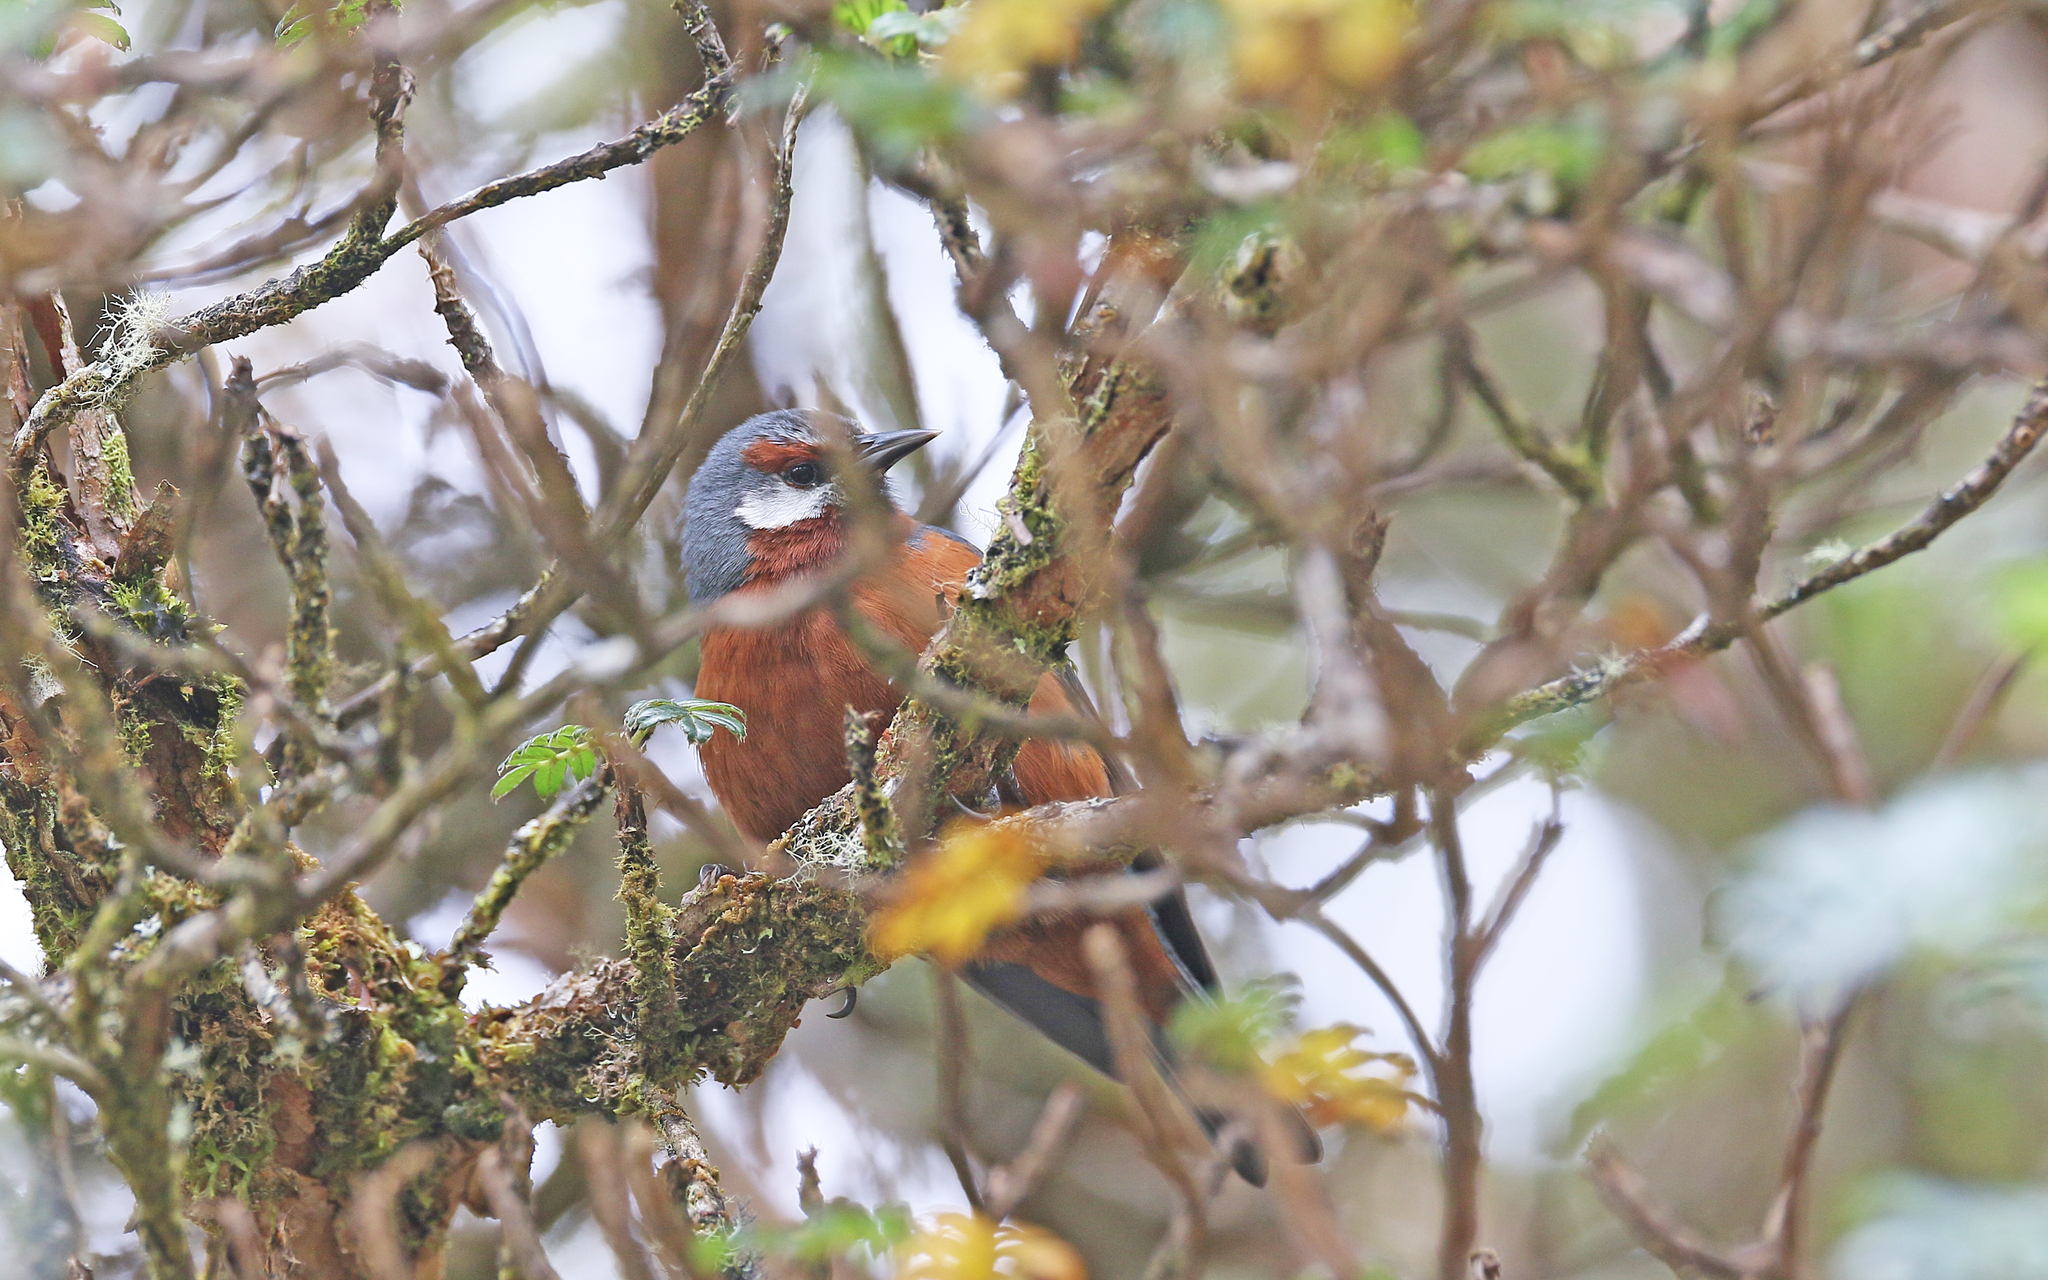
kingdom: Animalia
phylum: Chordata
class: Aves
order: Passeriformes
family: Thraupidae
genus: Conirostrum
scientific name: Conirostrum binghami
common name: Giant conebill
